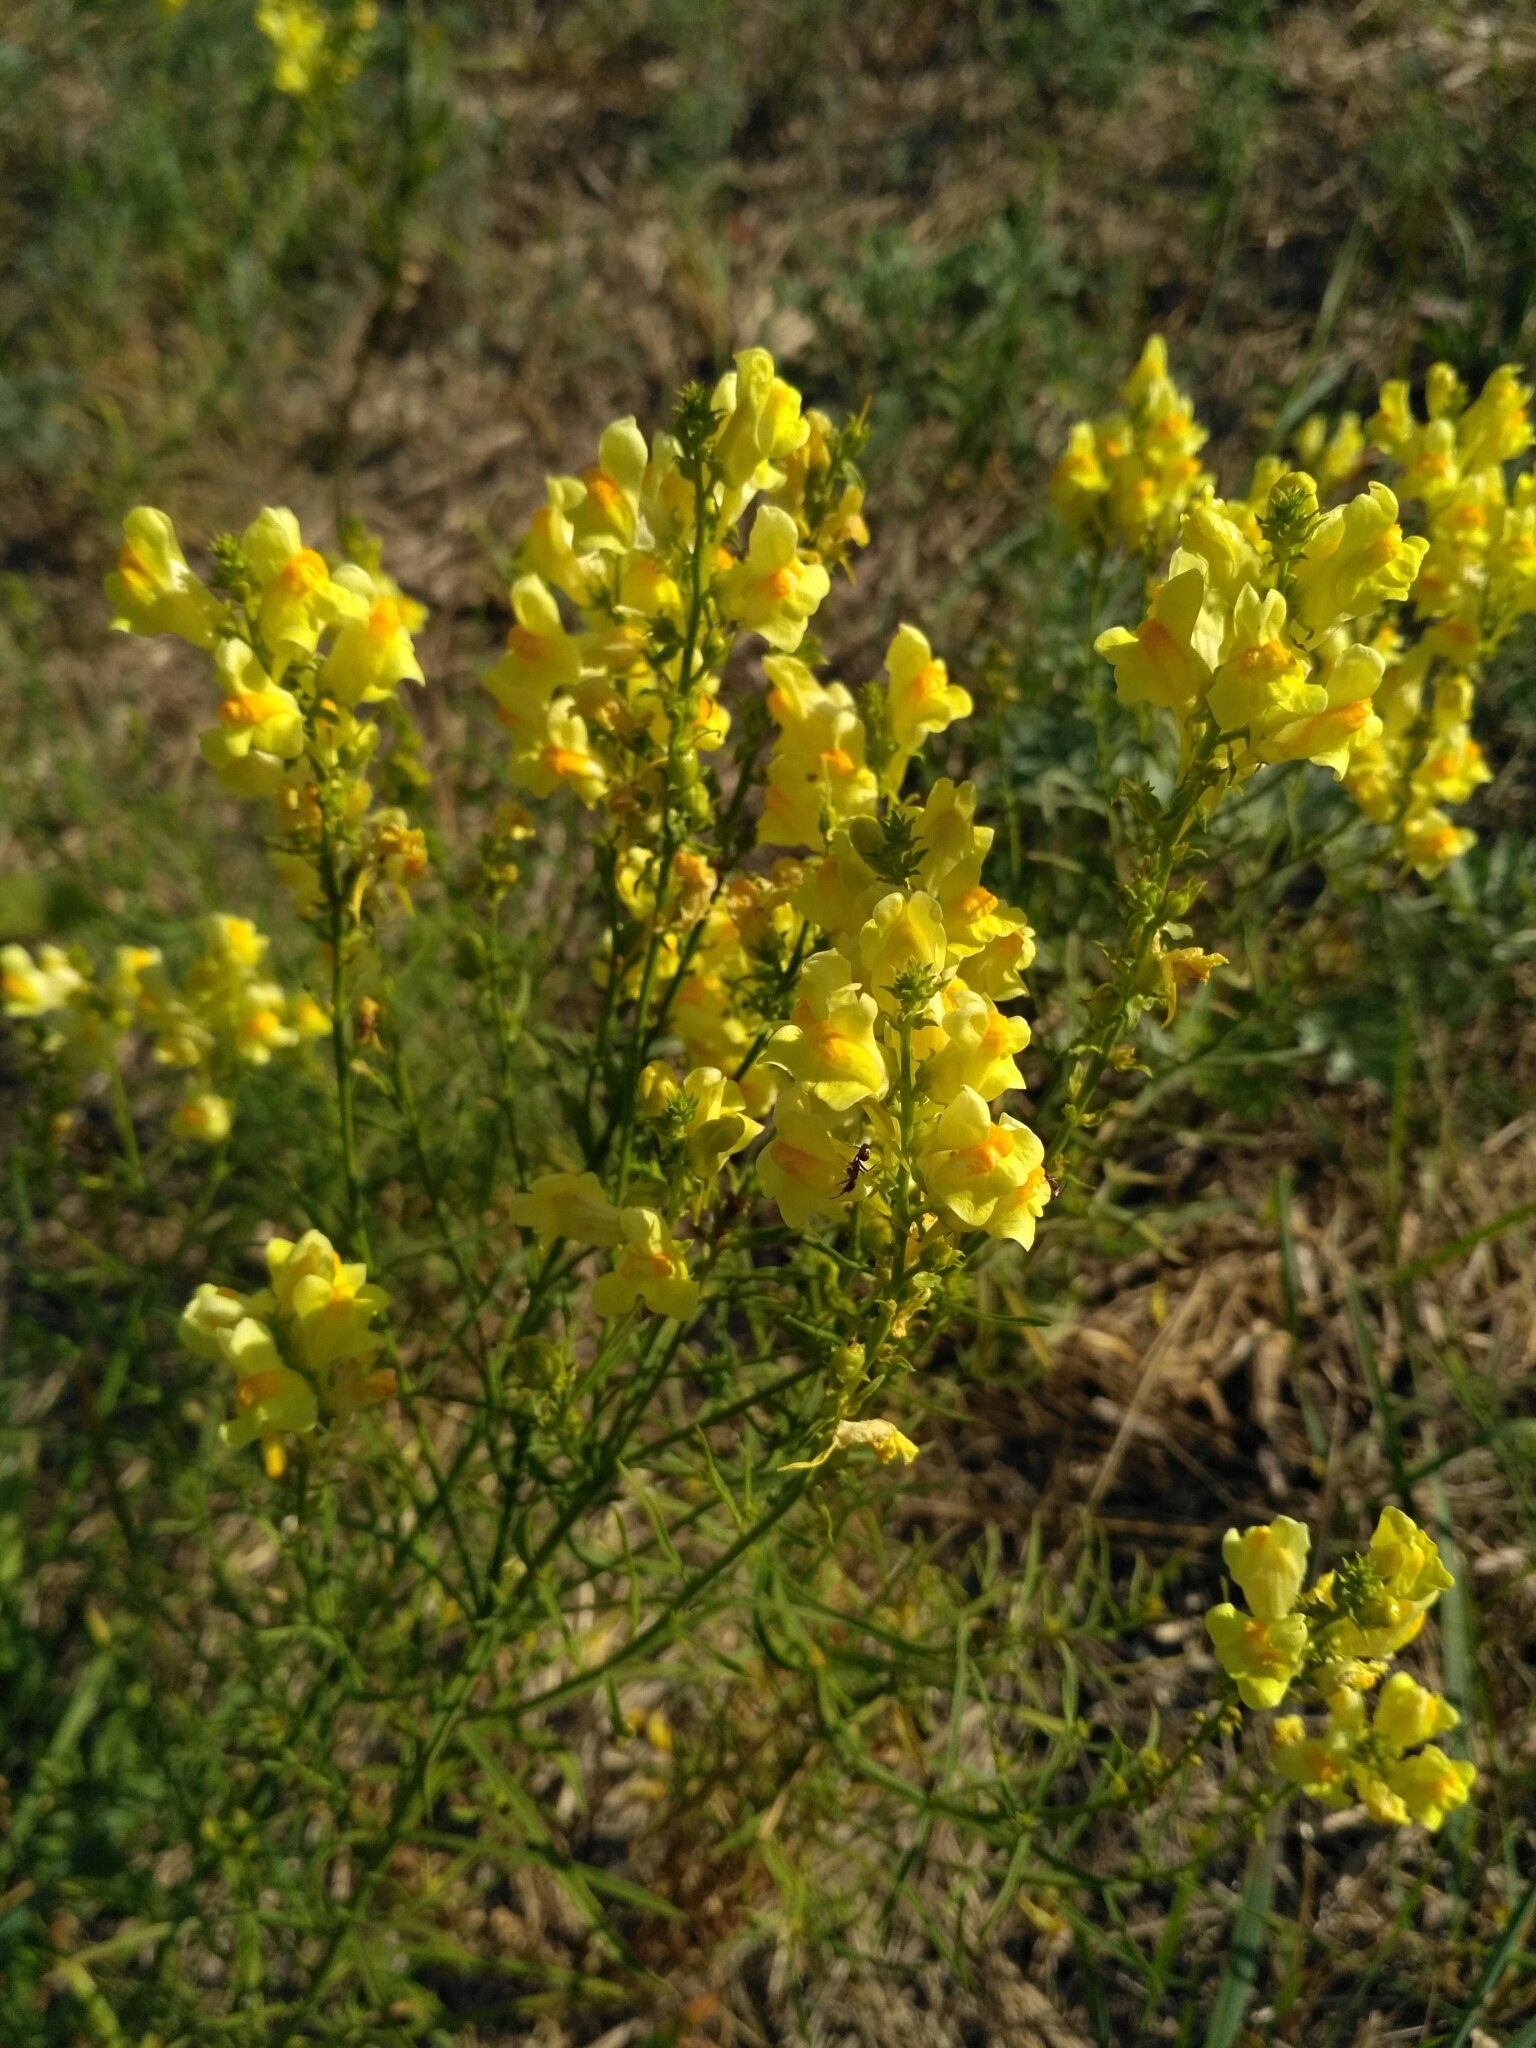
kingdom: Plantae
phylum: Tracheophyta
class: Magnoliopsida
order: Lamiales
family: Plantaginaceae
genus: Linaria
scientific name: Linaria vulgaris
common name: Butter and eggs
